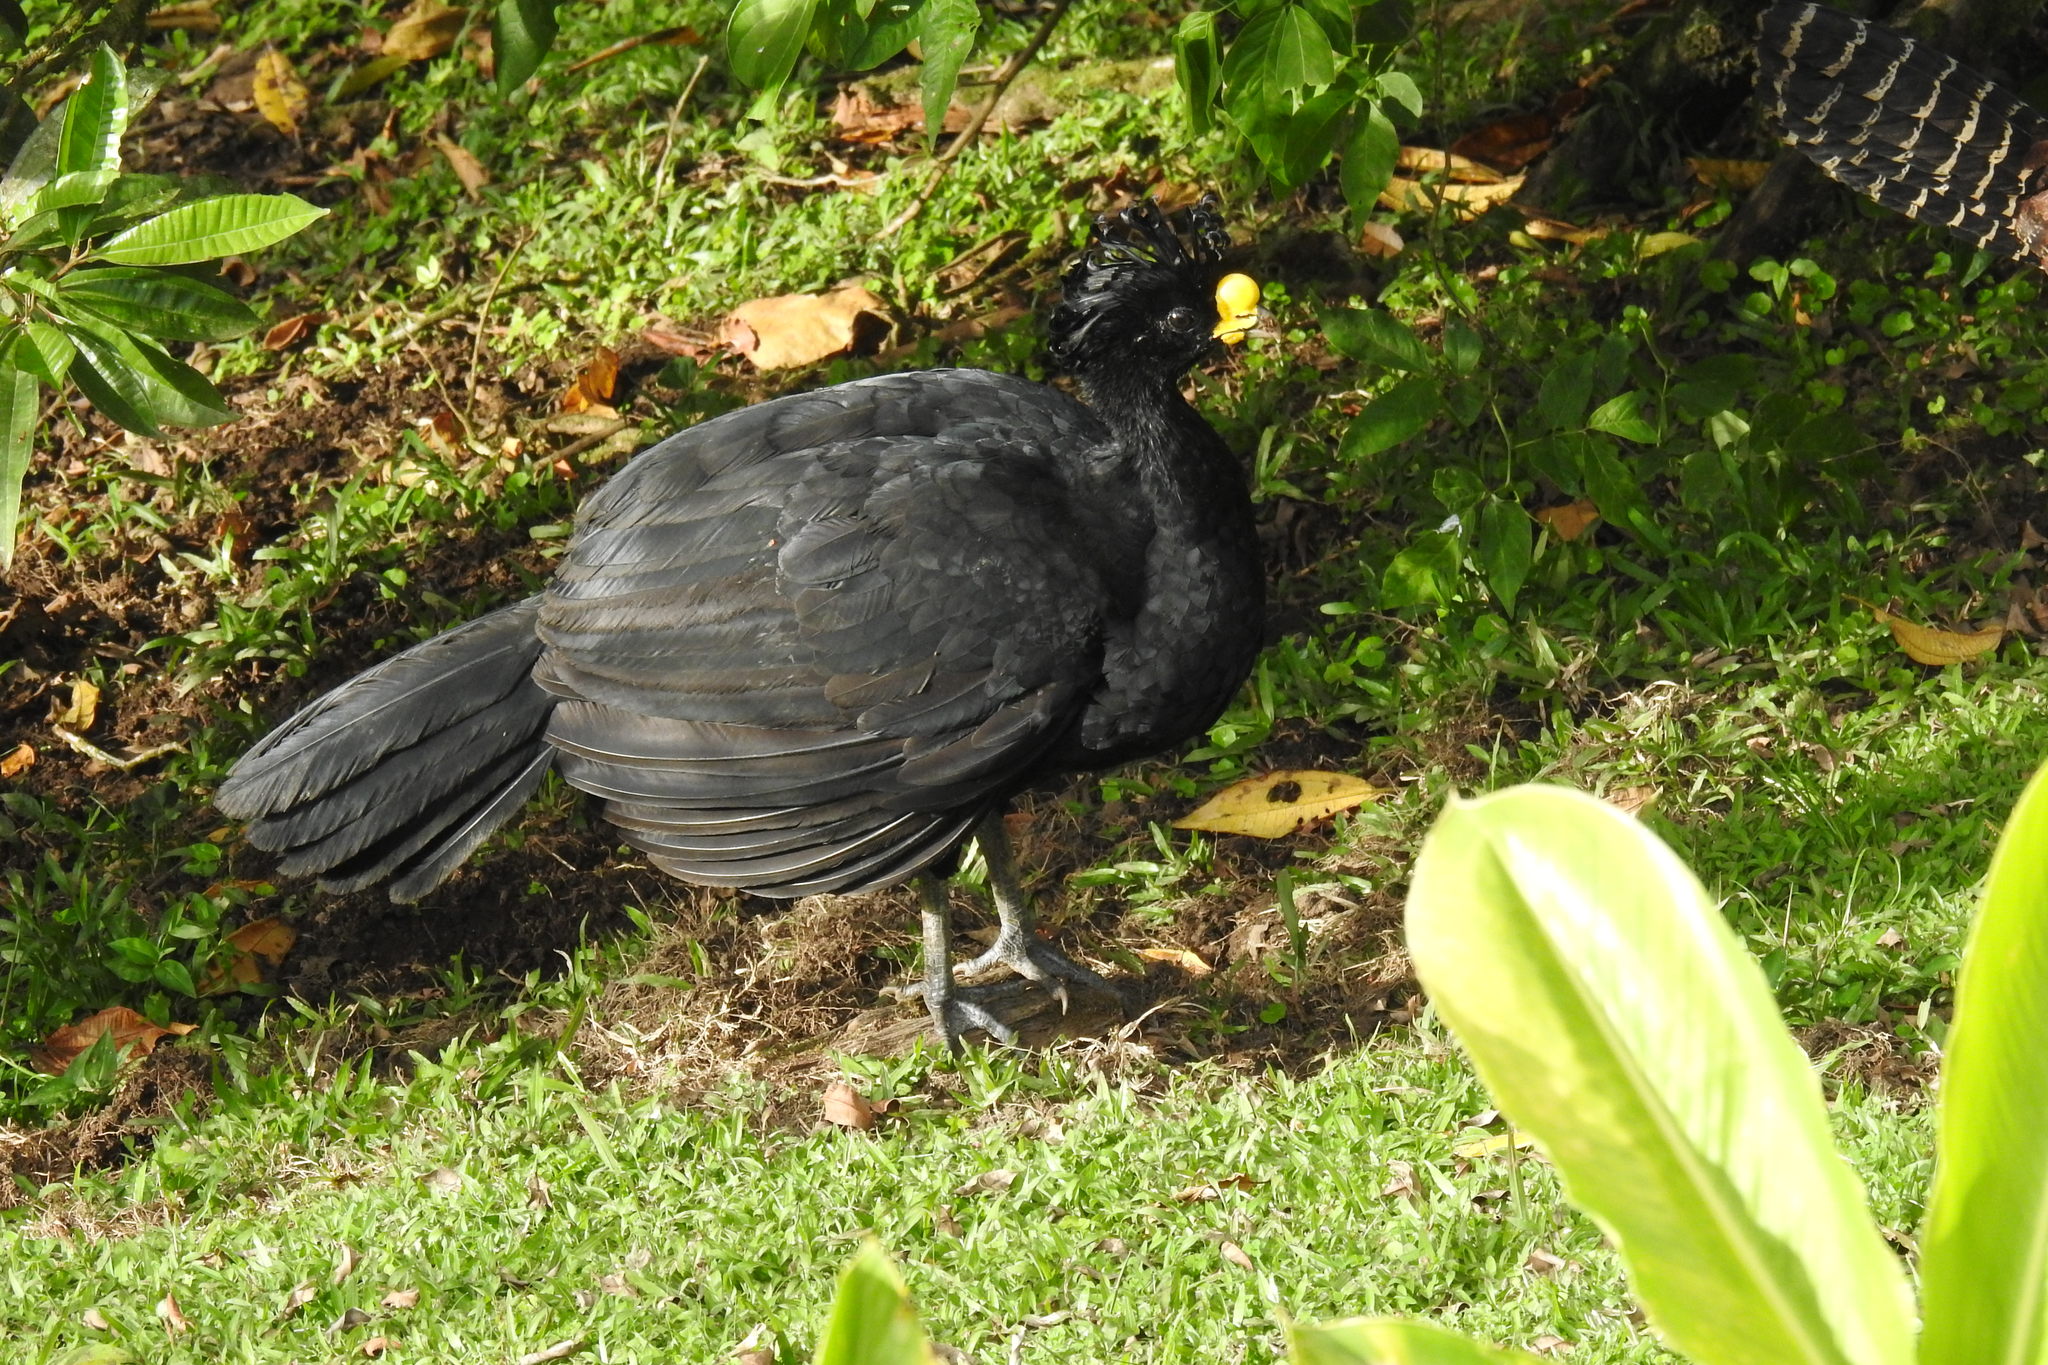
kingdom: Animalia
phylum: Chordata
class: Aves
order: Galliformes
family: Cracidae
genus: Crax
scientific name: Crax rubra
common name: Great curassow
